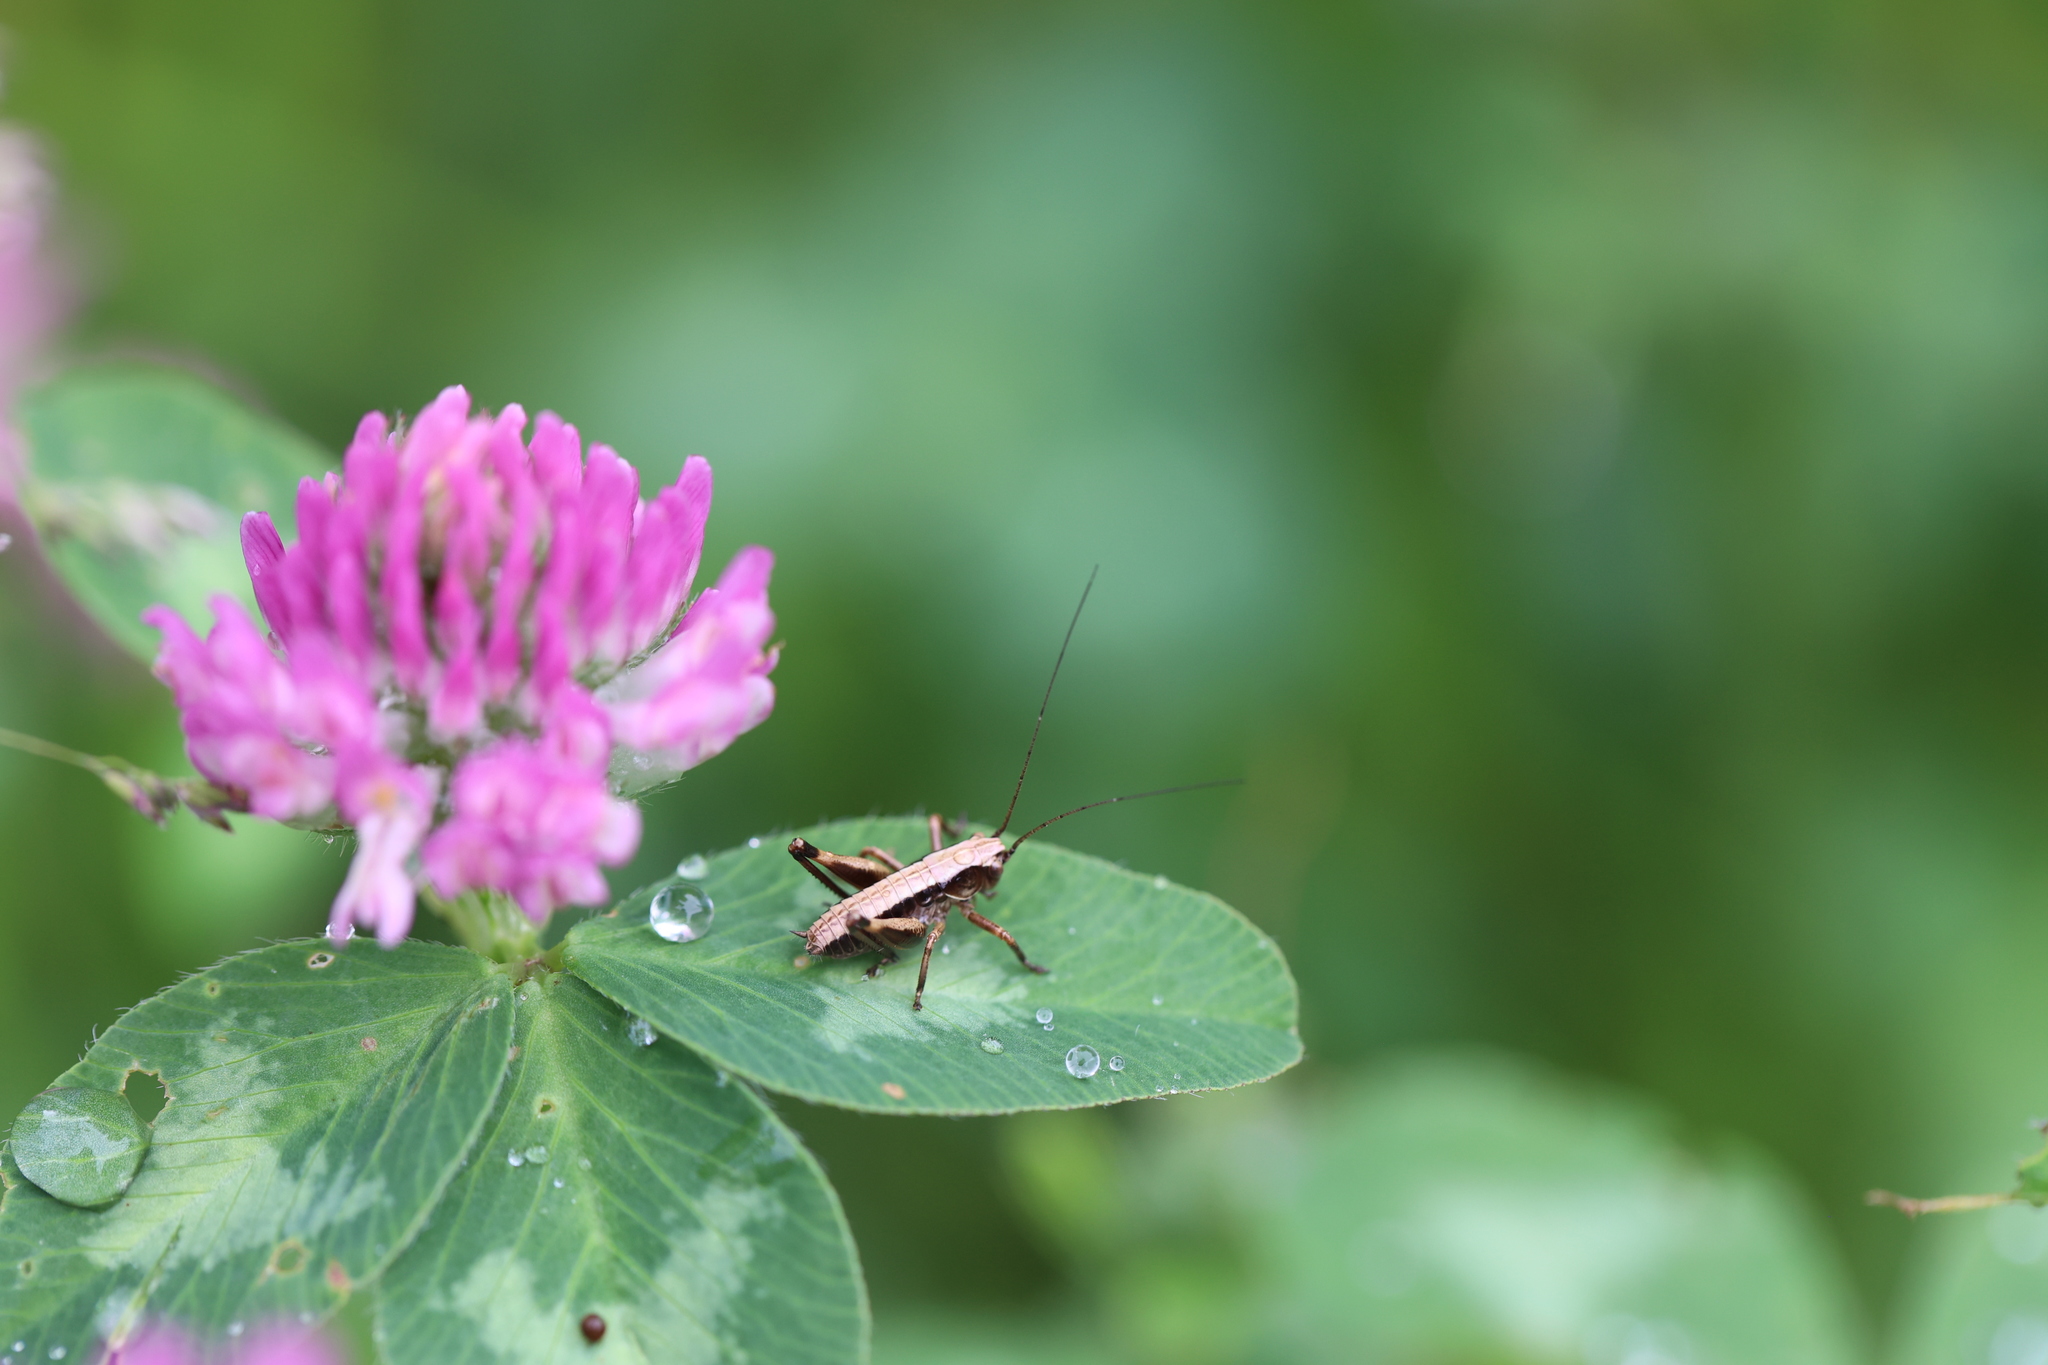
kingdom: Animalia
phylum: Arthropoda
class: Insecta
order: Orthoptera
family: Tettigoniidae
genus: Pholidoptera
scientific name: Pholidoptera griseoaptera
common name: Dark bush-cricket
